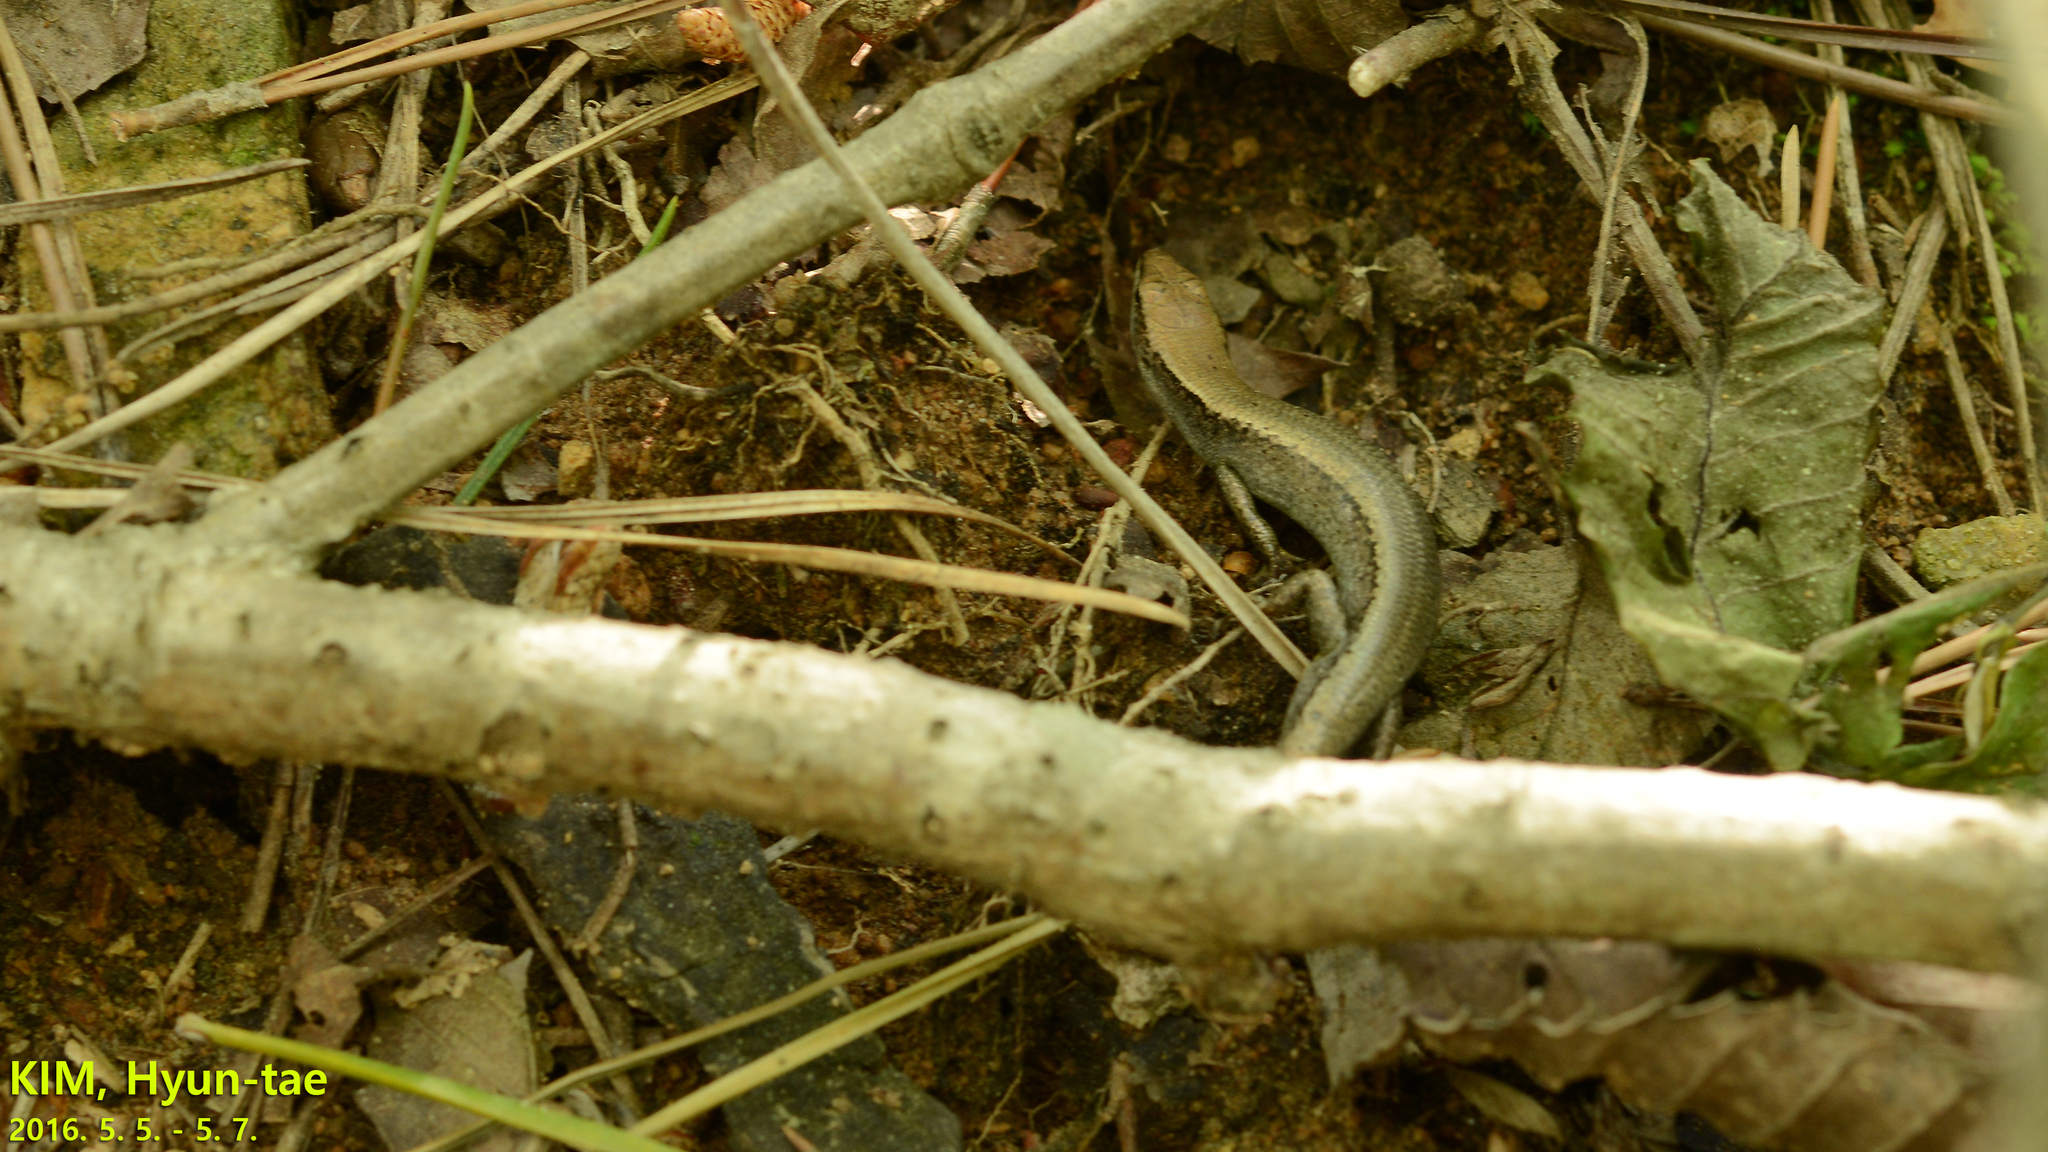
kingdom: Animalia
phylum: Chordata
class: Squamata
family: Scincidae
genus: Scincella
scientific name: Scincella vandenburghi
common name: Tsushima smooth skink
